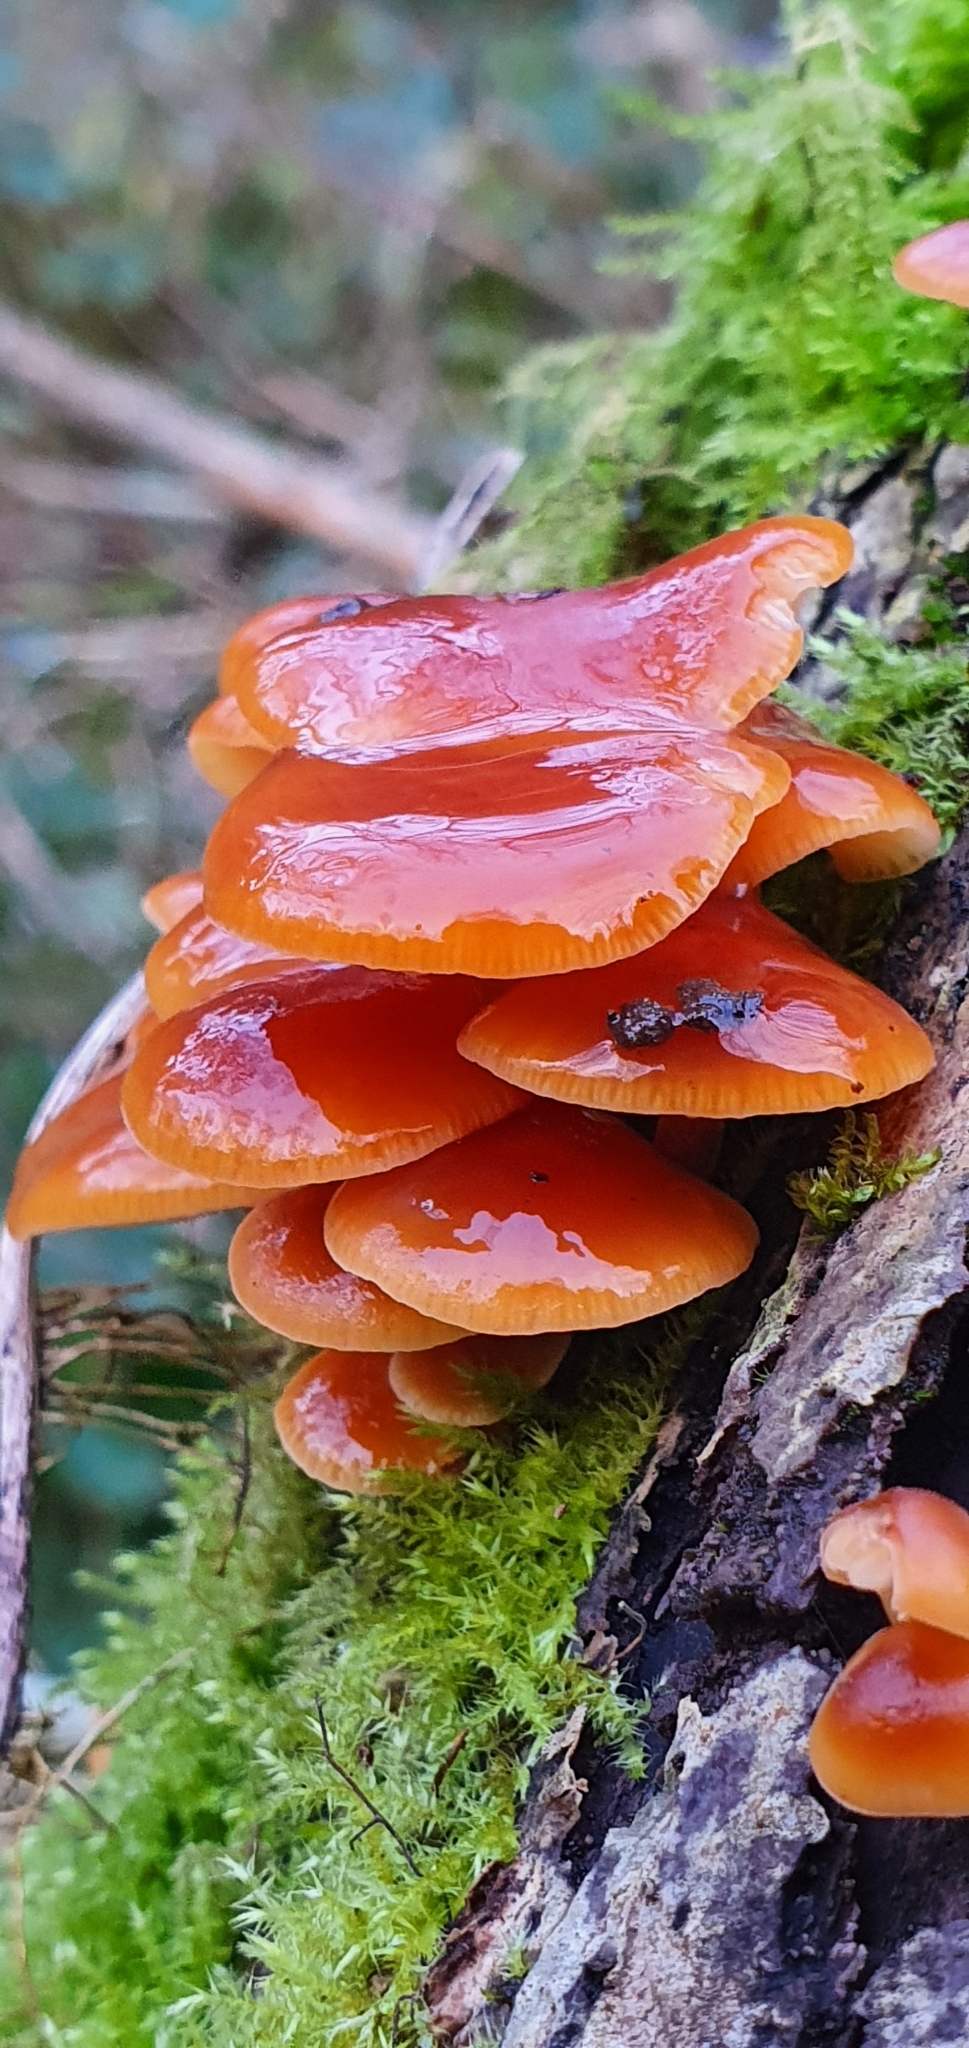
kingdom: Fungi
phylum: Basidiomycota
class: Agaricomycetes
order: Agaricales
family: Physalacriaceae
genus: Flammulina
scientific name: Flammulina
